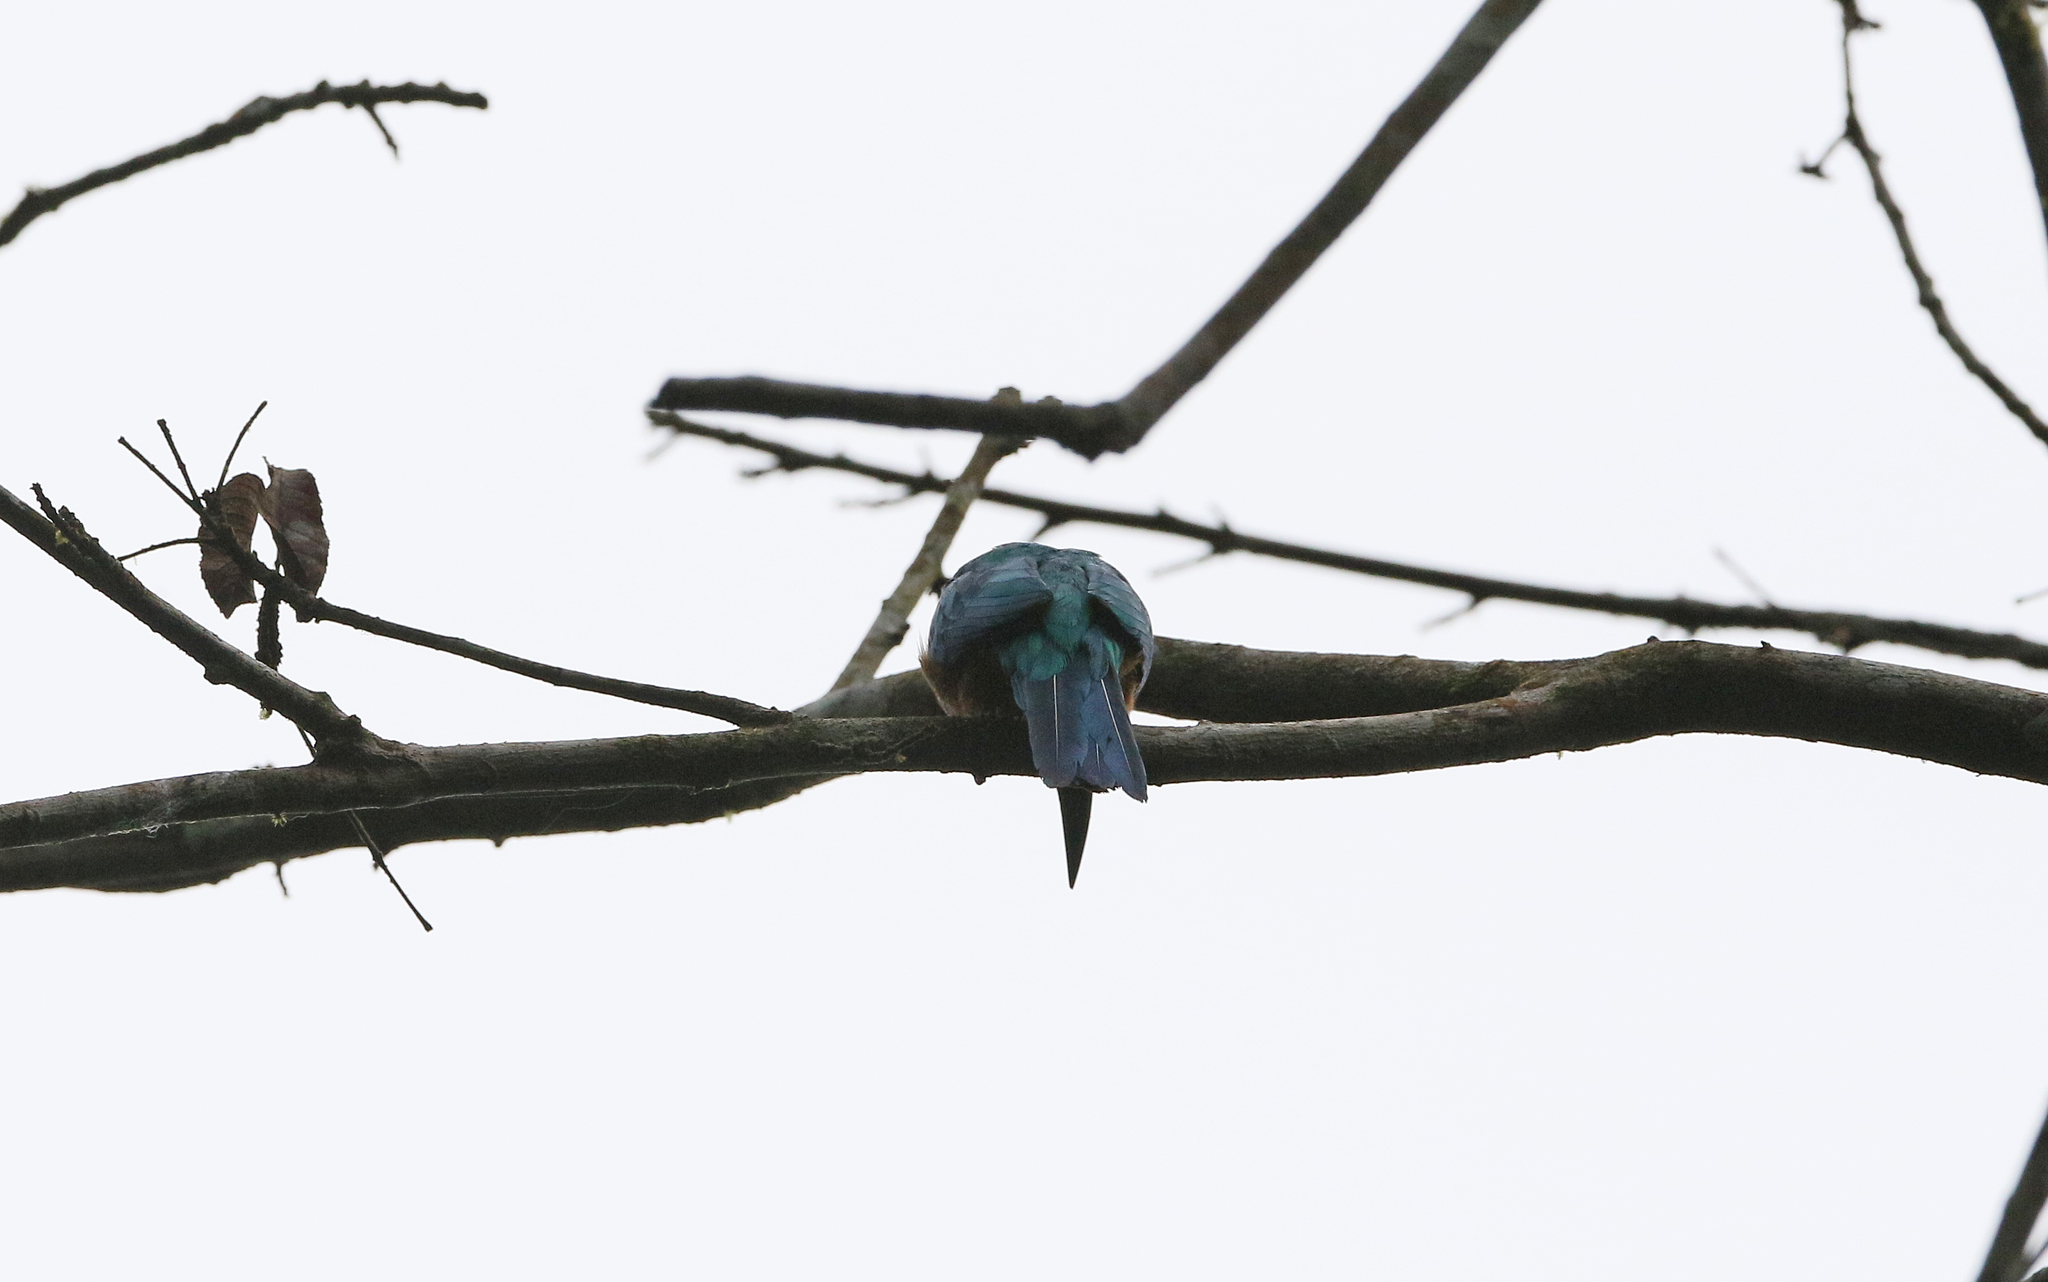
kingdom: Animalia
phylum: Chordata
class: Aves
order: Piciformes
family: Galbulidae
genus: Jacamerops
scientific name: Jacamerops aureus
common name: Great jacamar
